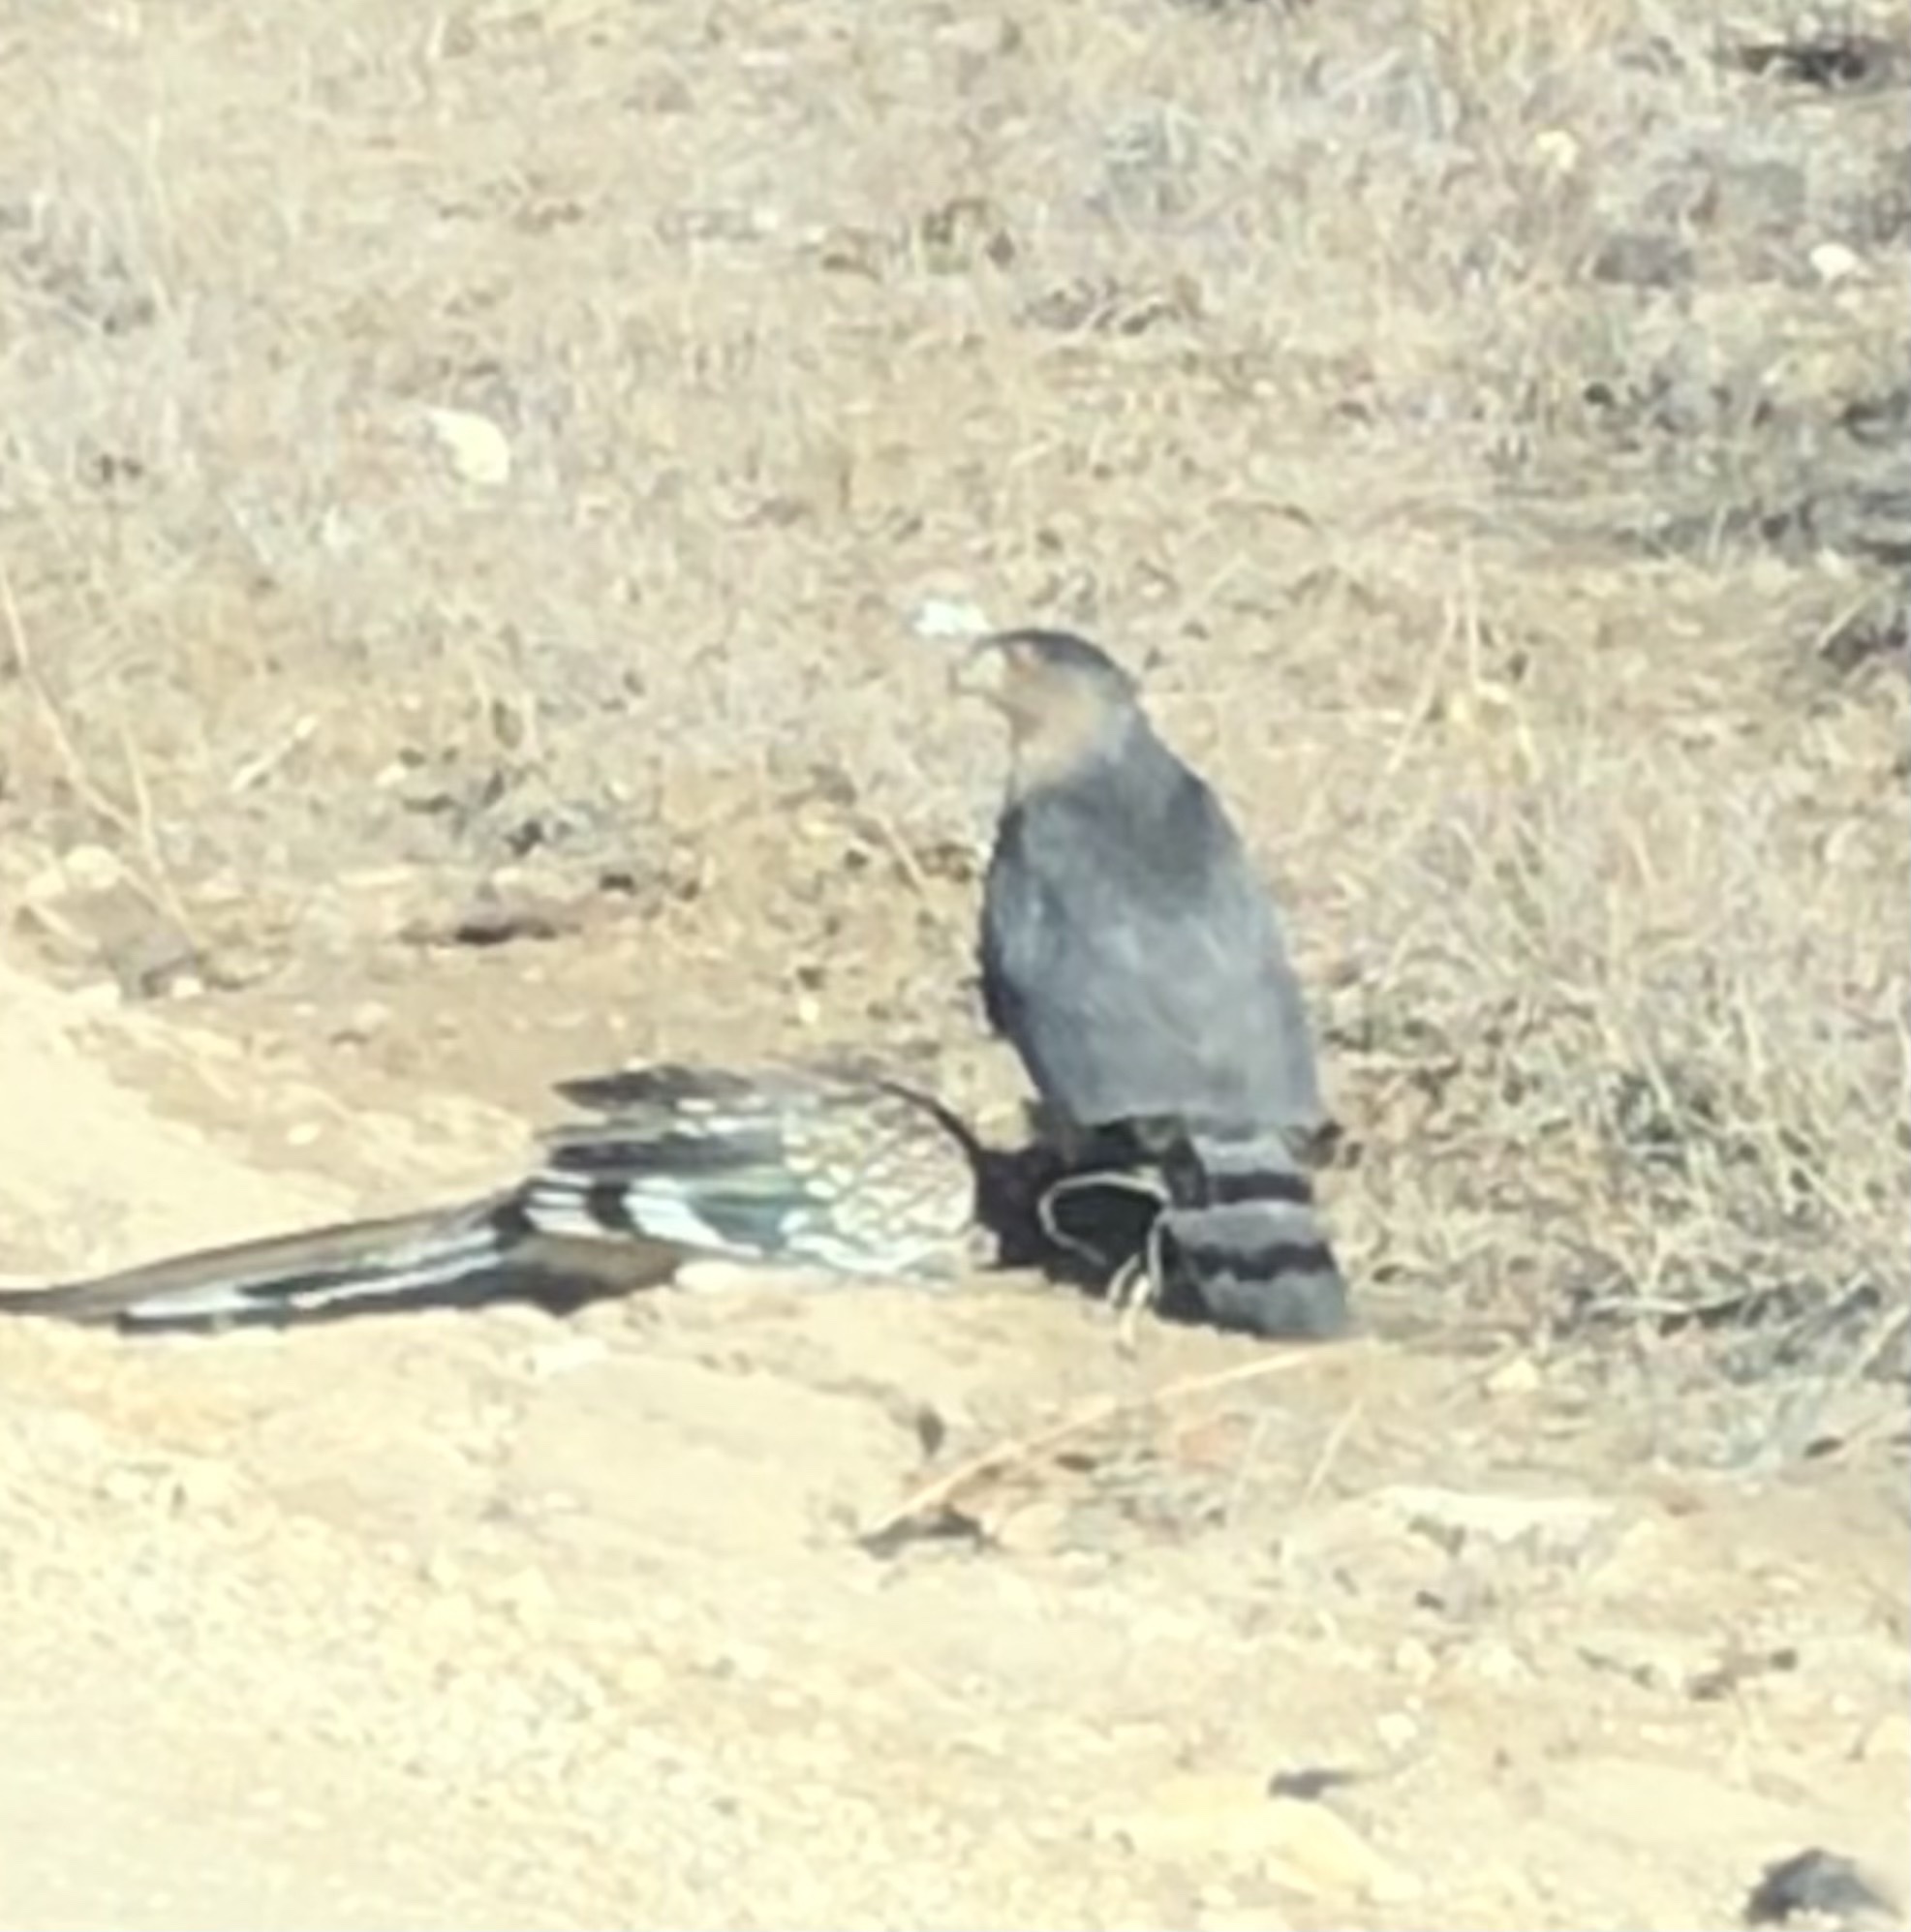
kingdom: Animalia
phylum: Chordata
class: Aves
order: Cuculiformes
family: Cuculidae
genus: Geococcyx
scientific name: Geococcyx californianus
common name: Greater roadrunner
